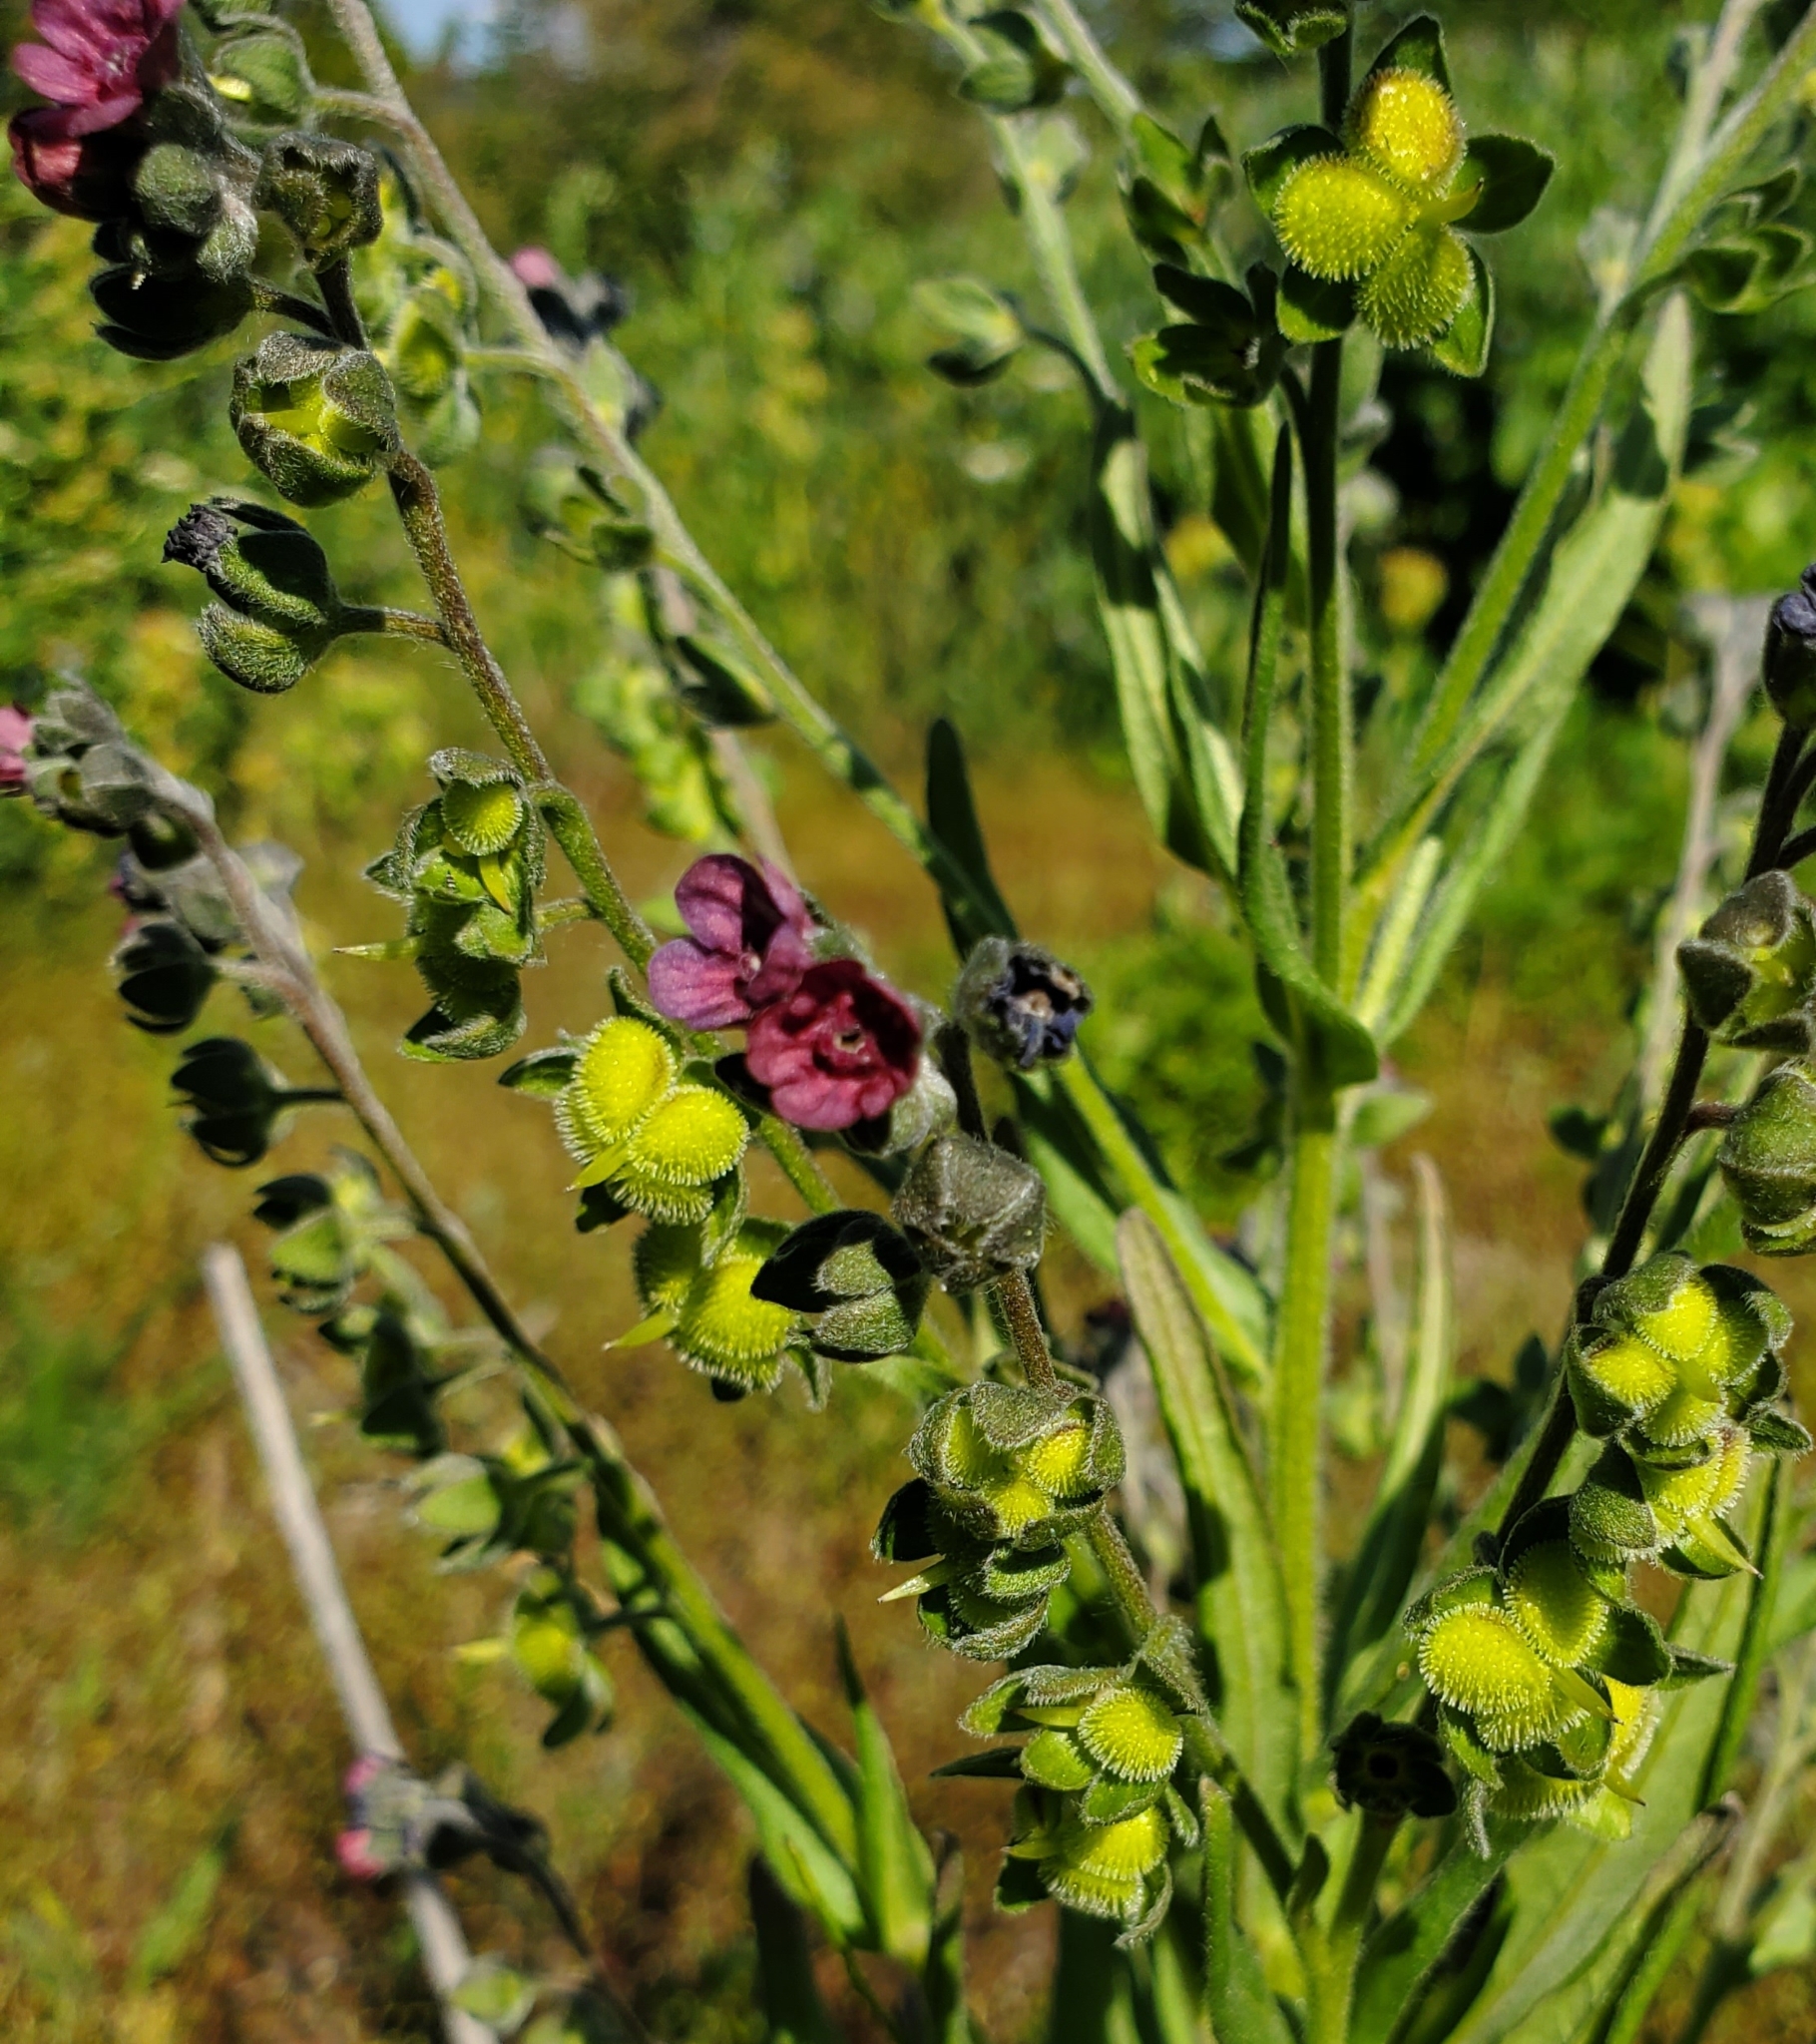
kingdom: Plantae
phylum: Tracheophyta
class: Magnoliopsida
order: Boraginales
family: Boraginaceae
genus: Cynoglossum
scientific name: Cynoglossum officinale
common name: Hound's-tongue
